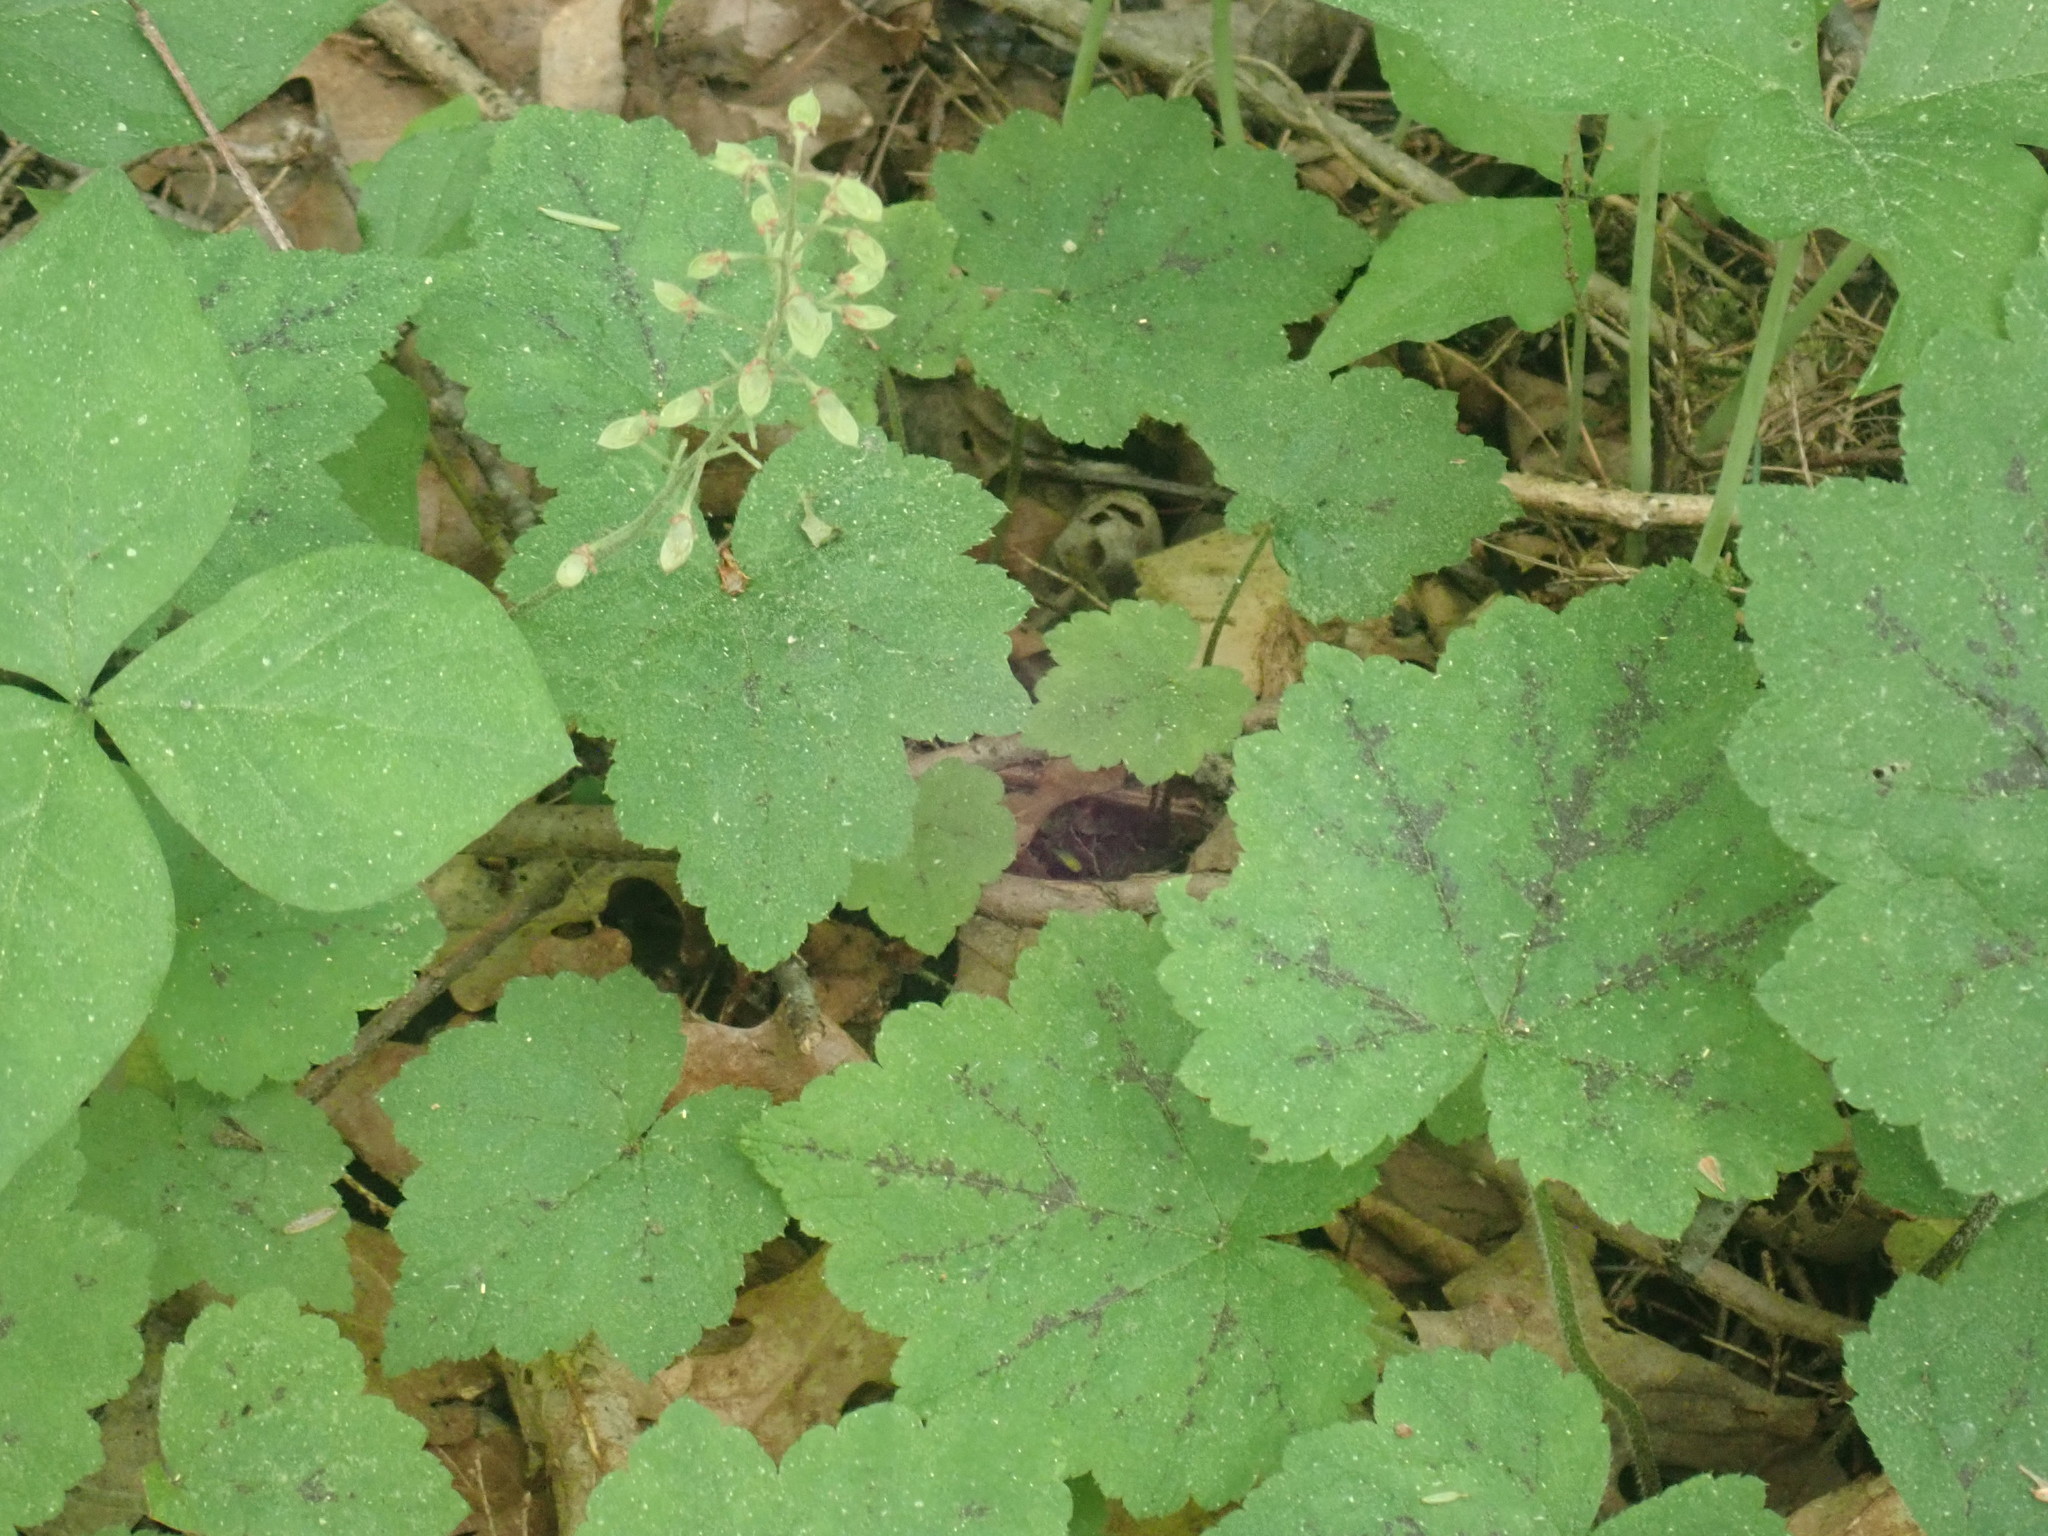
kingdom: Plantae
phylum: Tracheophyta
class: Magnoliopsida
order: Saxifragales
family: Saxifragaceae
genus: Tiarella
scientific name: Tiarella stolonifera
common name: Stoloniferous foamflower
